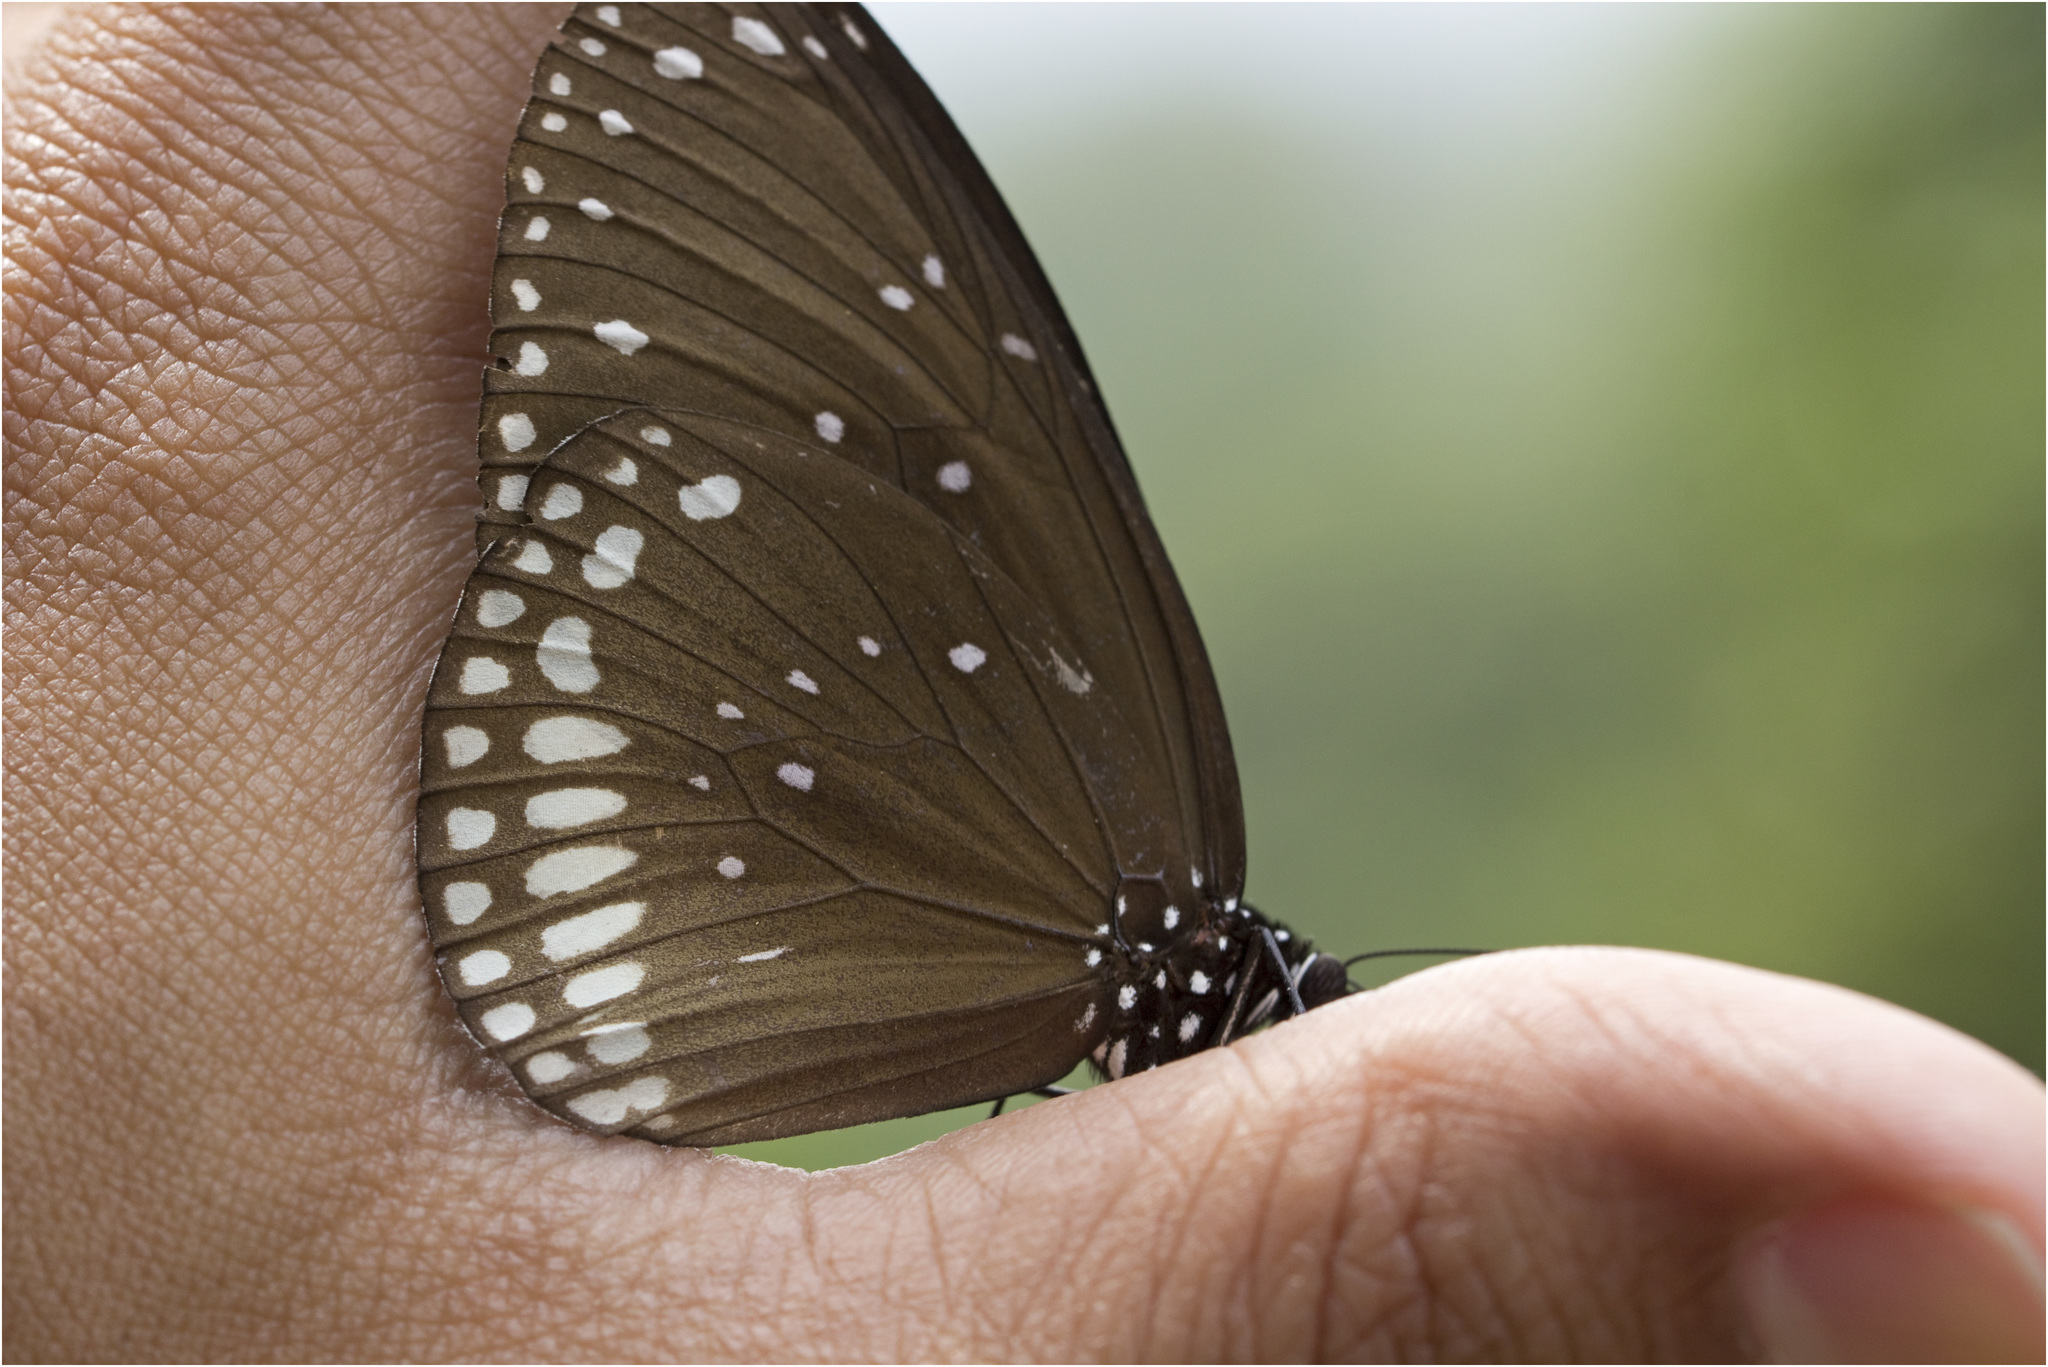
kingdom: Animalia
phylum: Arthropoda
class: Insecta
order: Lepidoptera
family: Nymphalidae
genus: Euploea
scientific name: Euploea sylvester
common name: Double-branded crow butterfly
